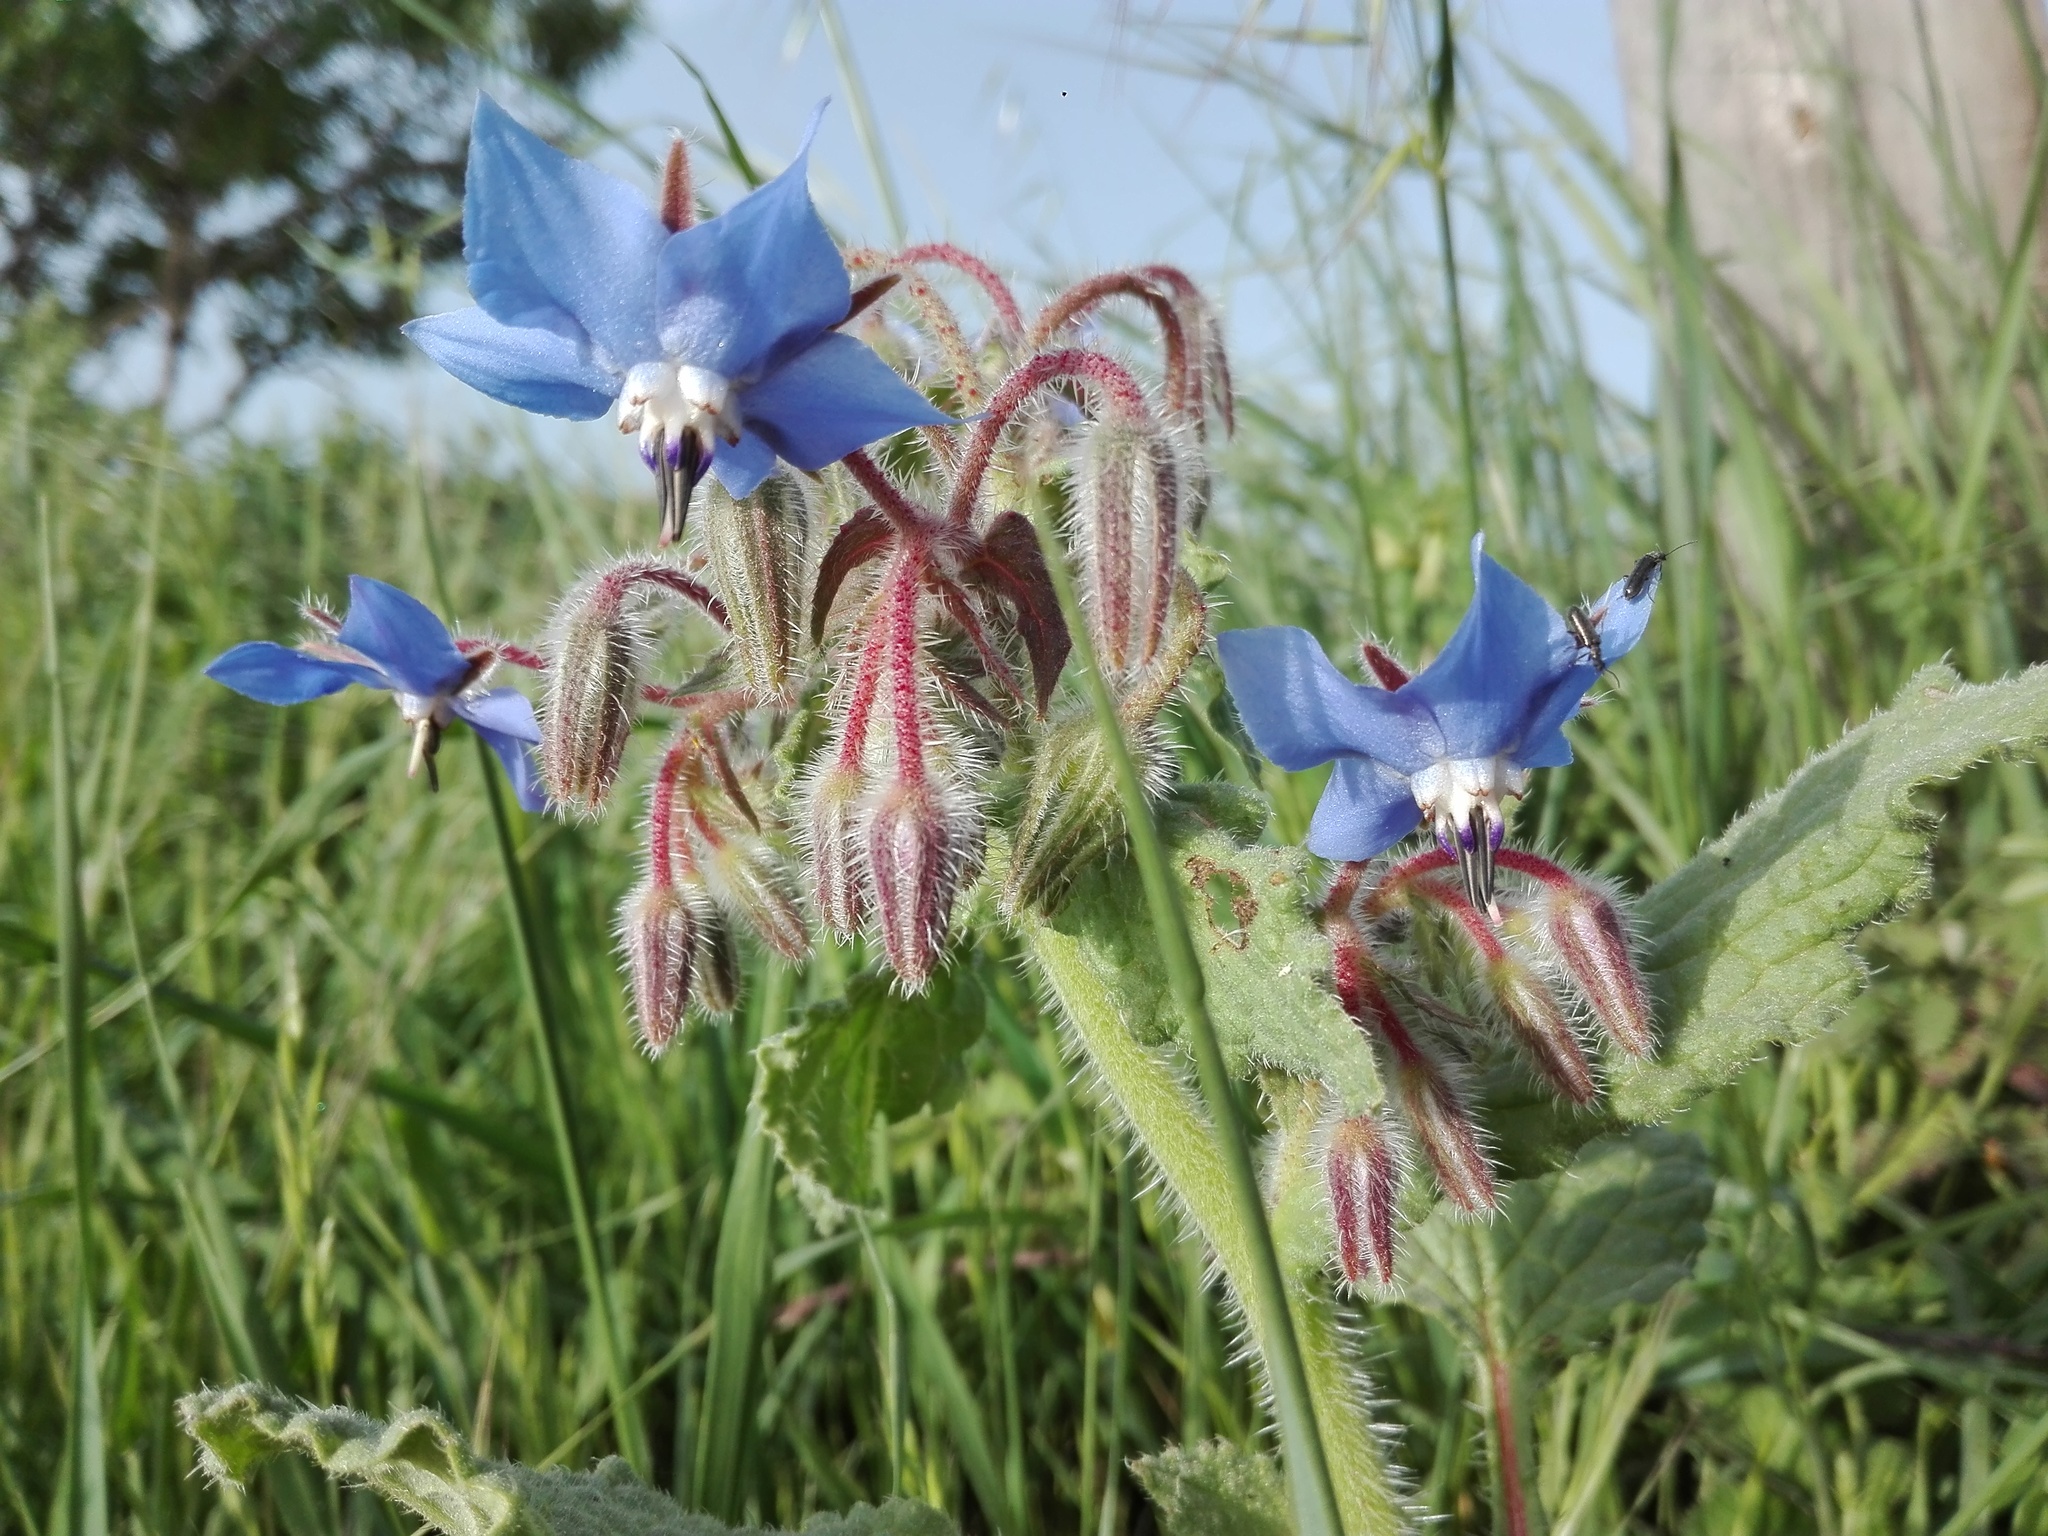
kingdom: Plantae
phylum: Tracheophyta
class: Magnoliopsida
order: Boraginales
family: Boraginaceae
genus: Borago
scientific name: Borago officinalis
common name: Borage
